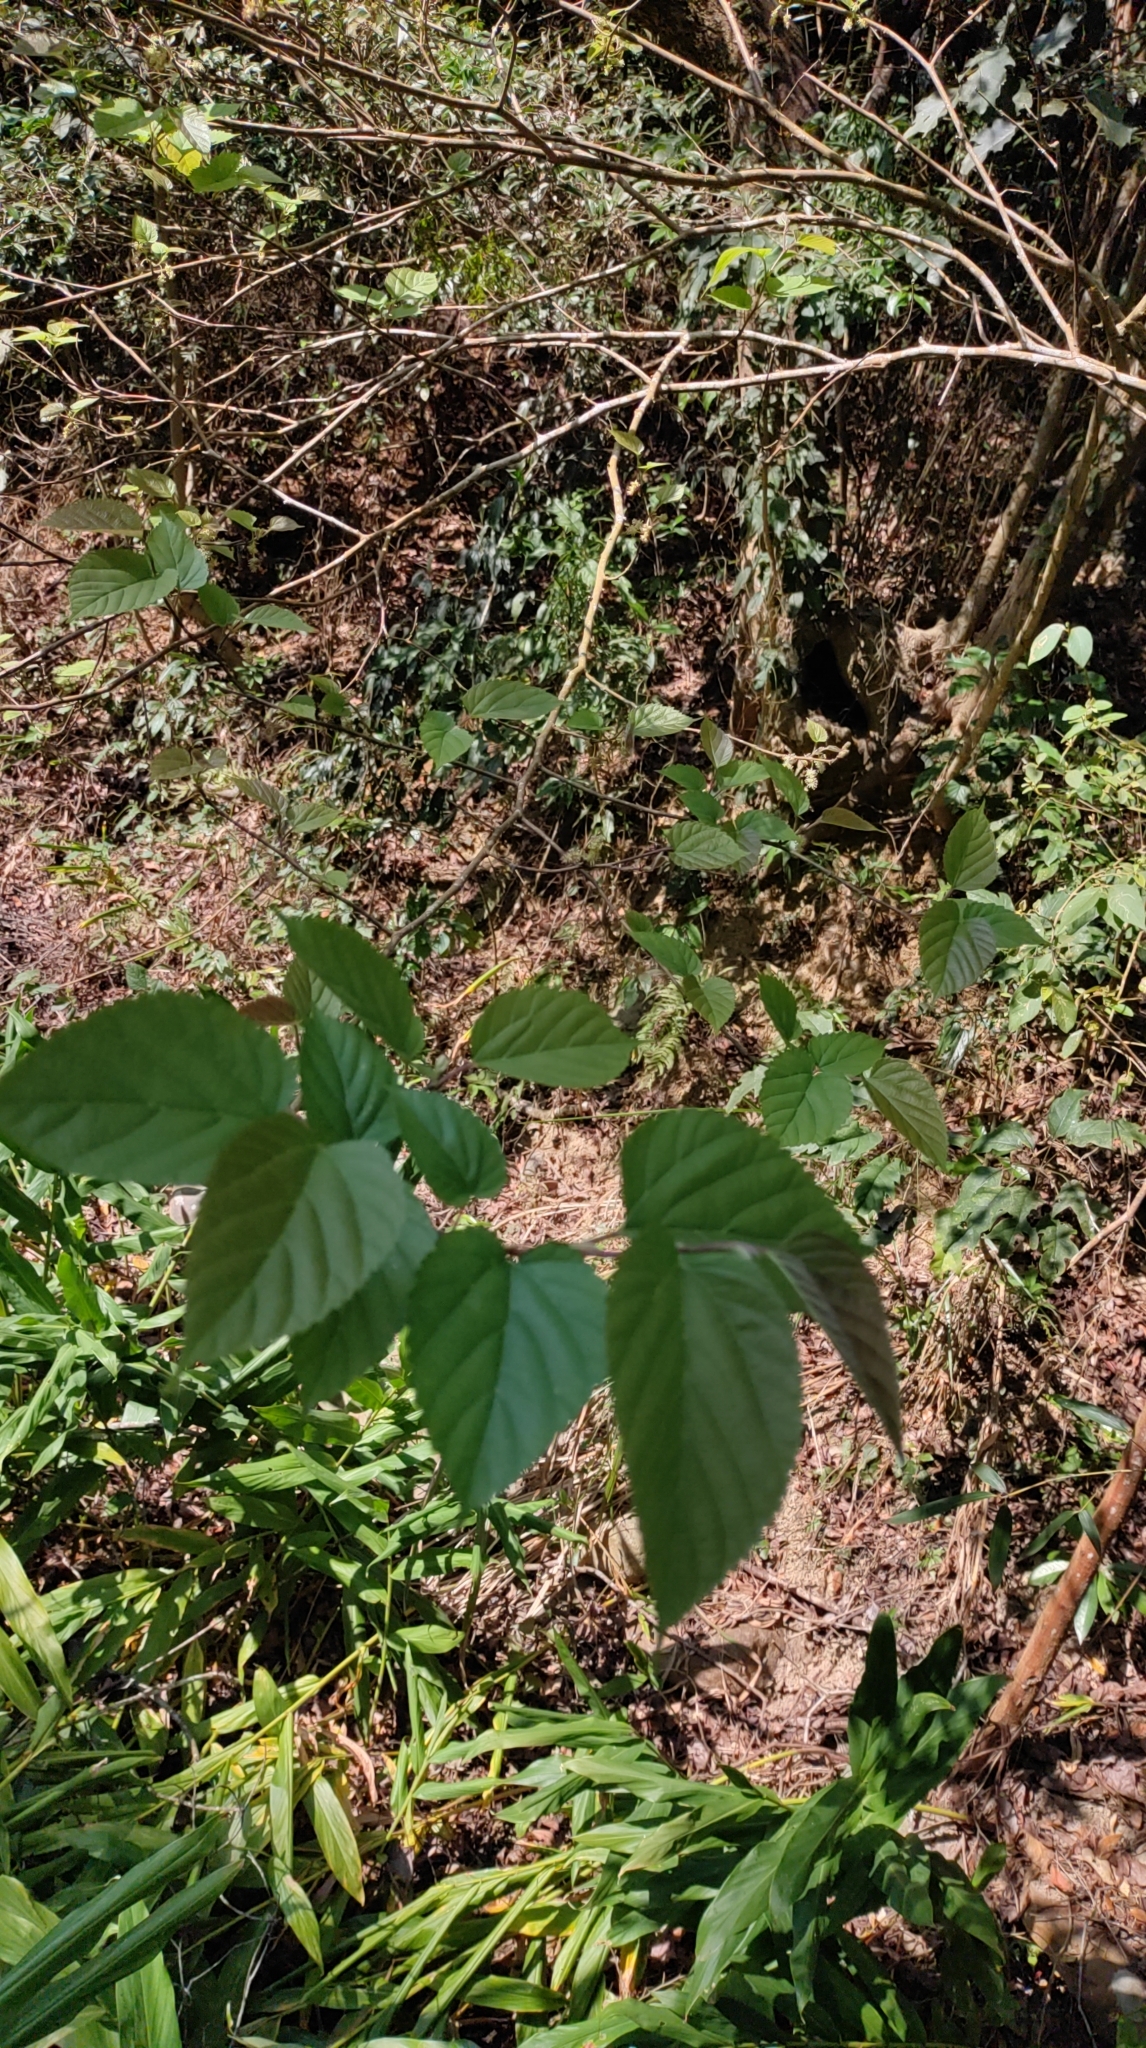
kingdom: Plantae
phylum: Tracheophyta
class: Magnoliopsida
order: Rosales
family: Moraceae
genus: Morus
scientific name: Morus indica
